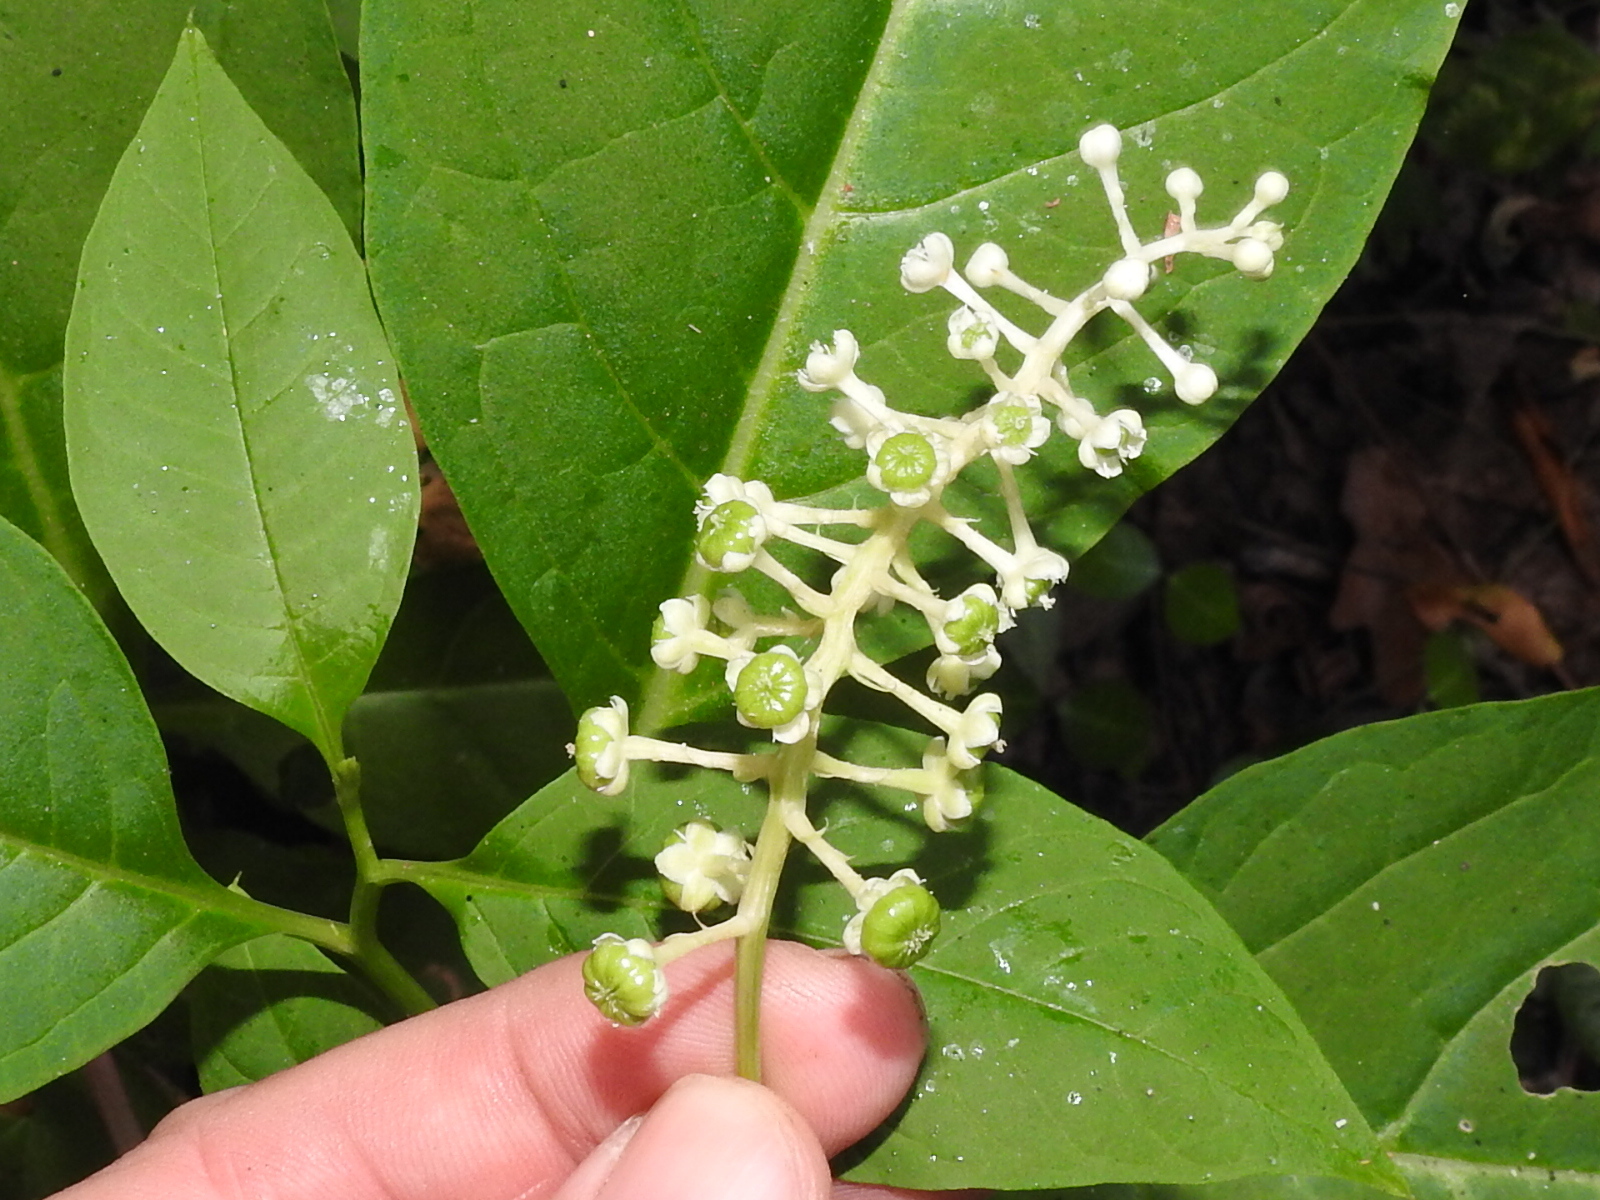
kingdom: Plantae
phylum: Tracheophyta
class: Magnoliopsida
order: Caryophyllales
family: Phytolaccaceae
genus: Phytolacca
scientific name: Phytolacca americana
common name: American pokeweed
